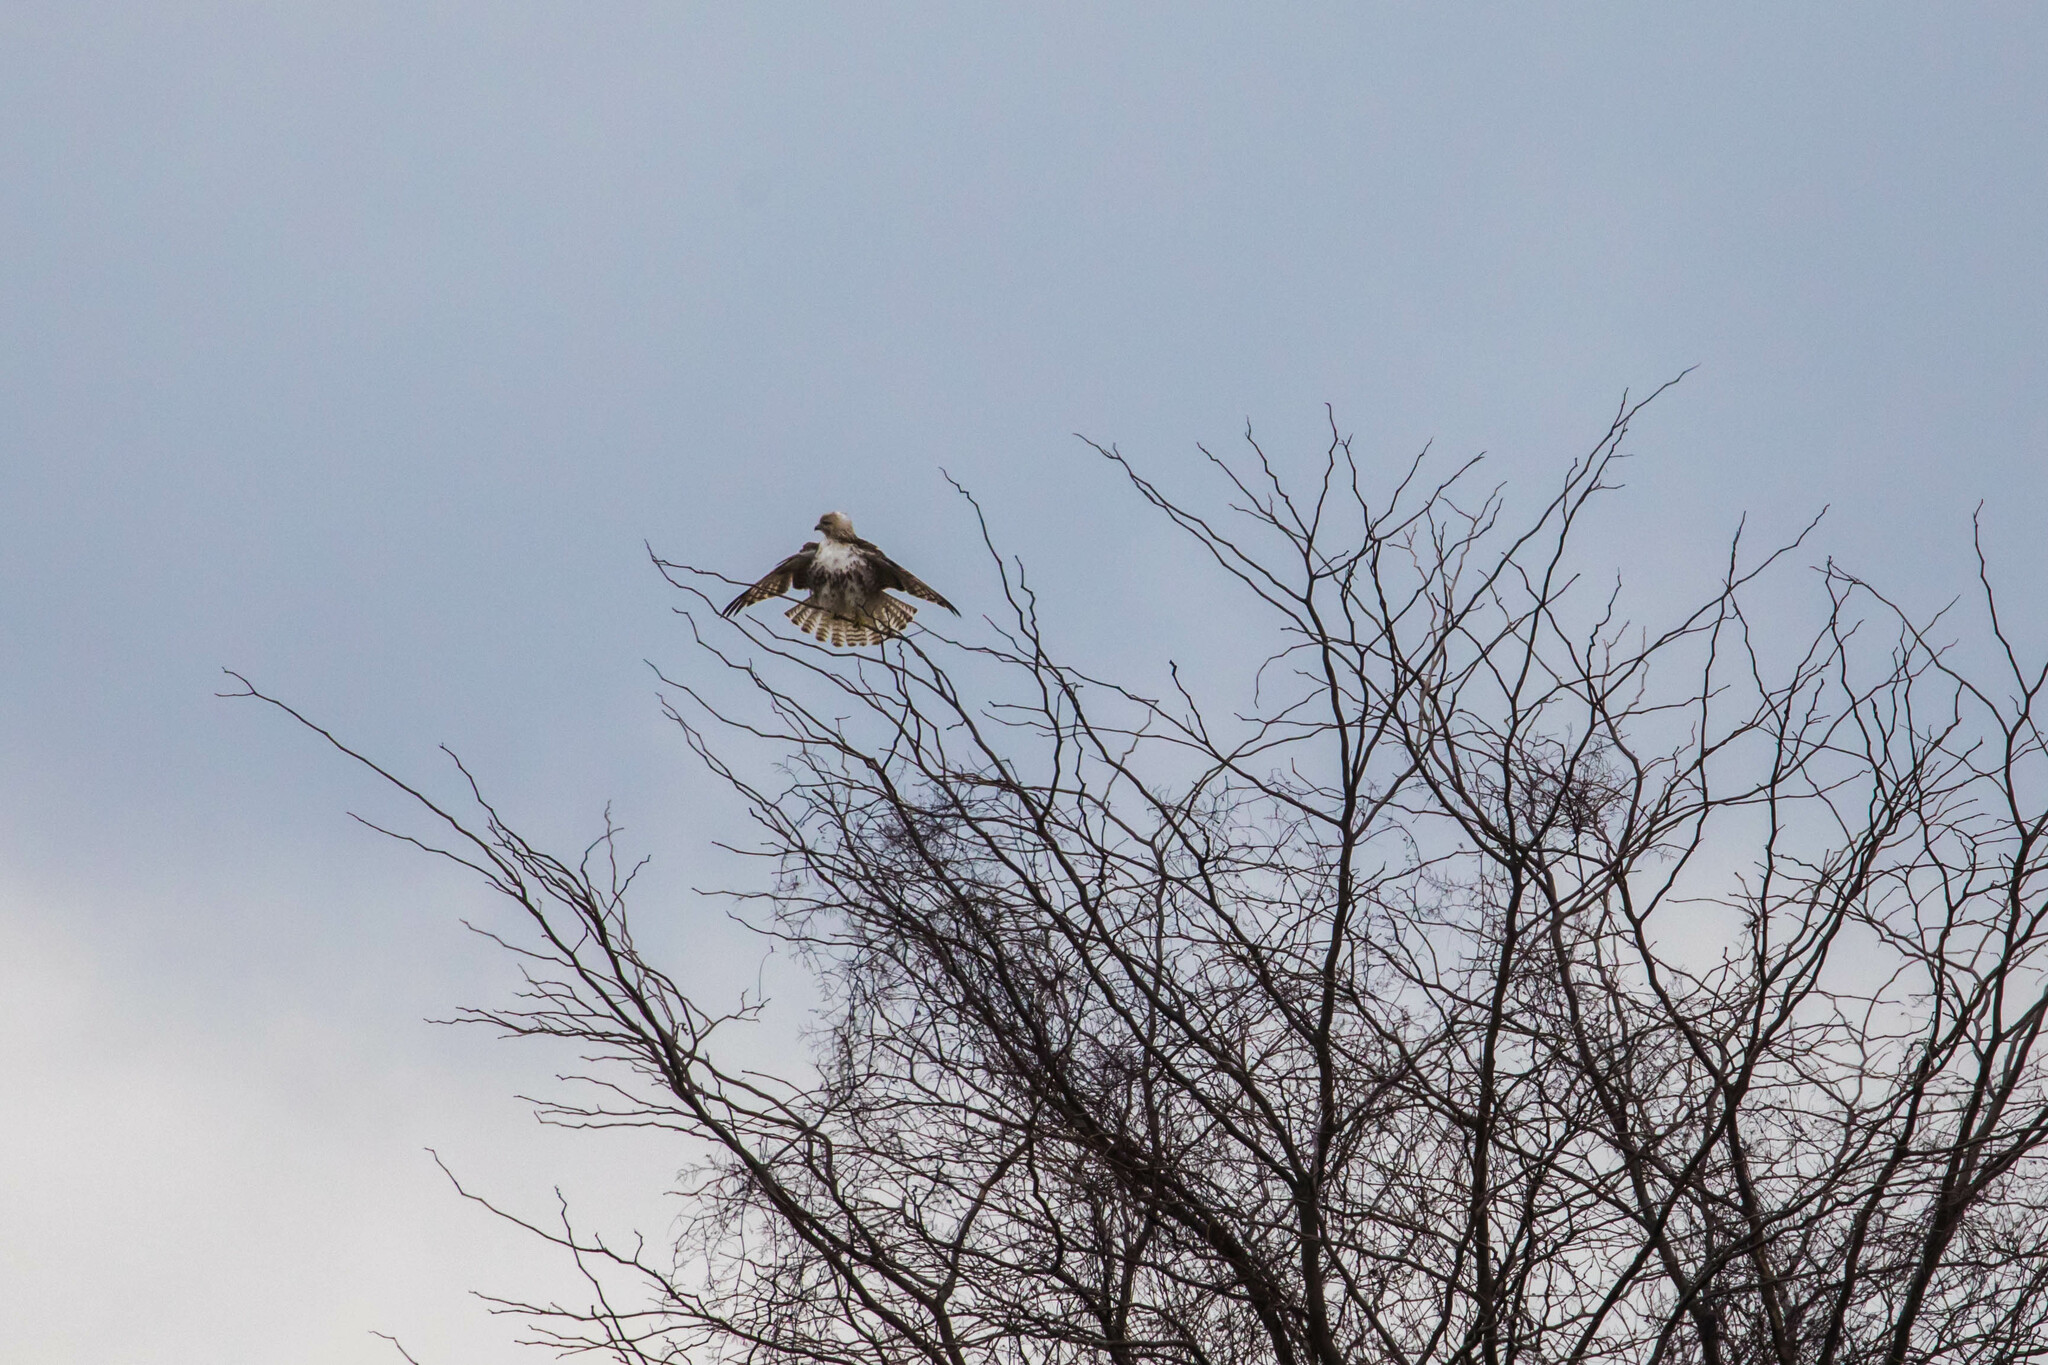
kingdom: Animalia
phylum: Chordata
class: Aves
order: Accipitriformes
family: Accipitridae
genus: Buteo
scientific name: Buteo jamaicensis
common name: Red-tailed hawk
